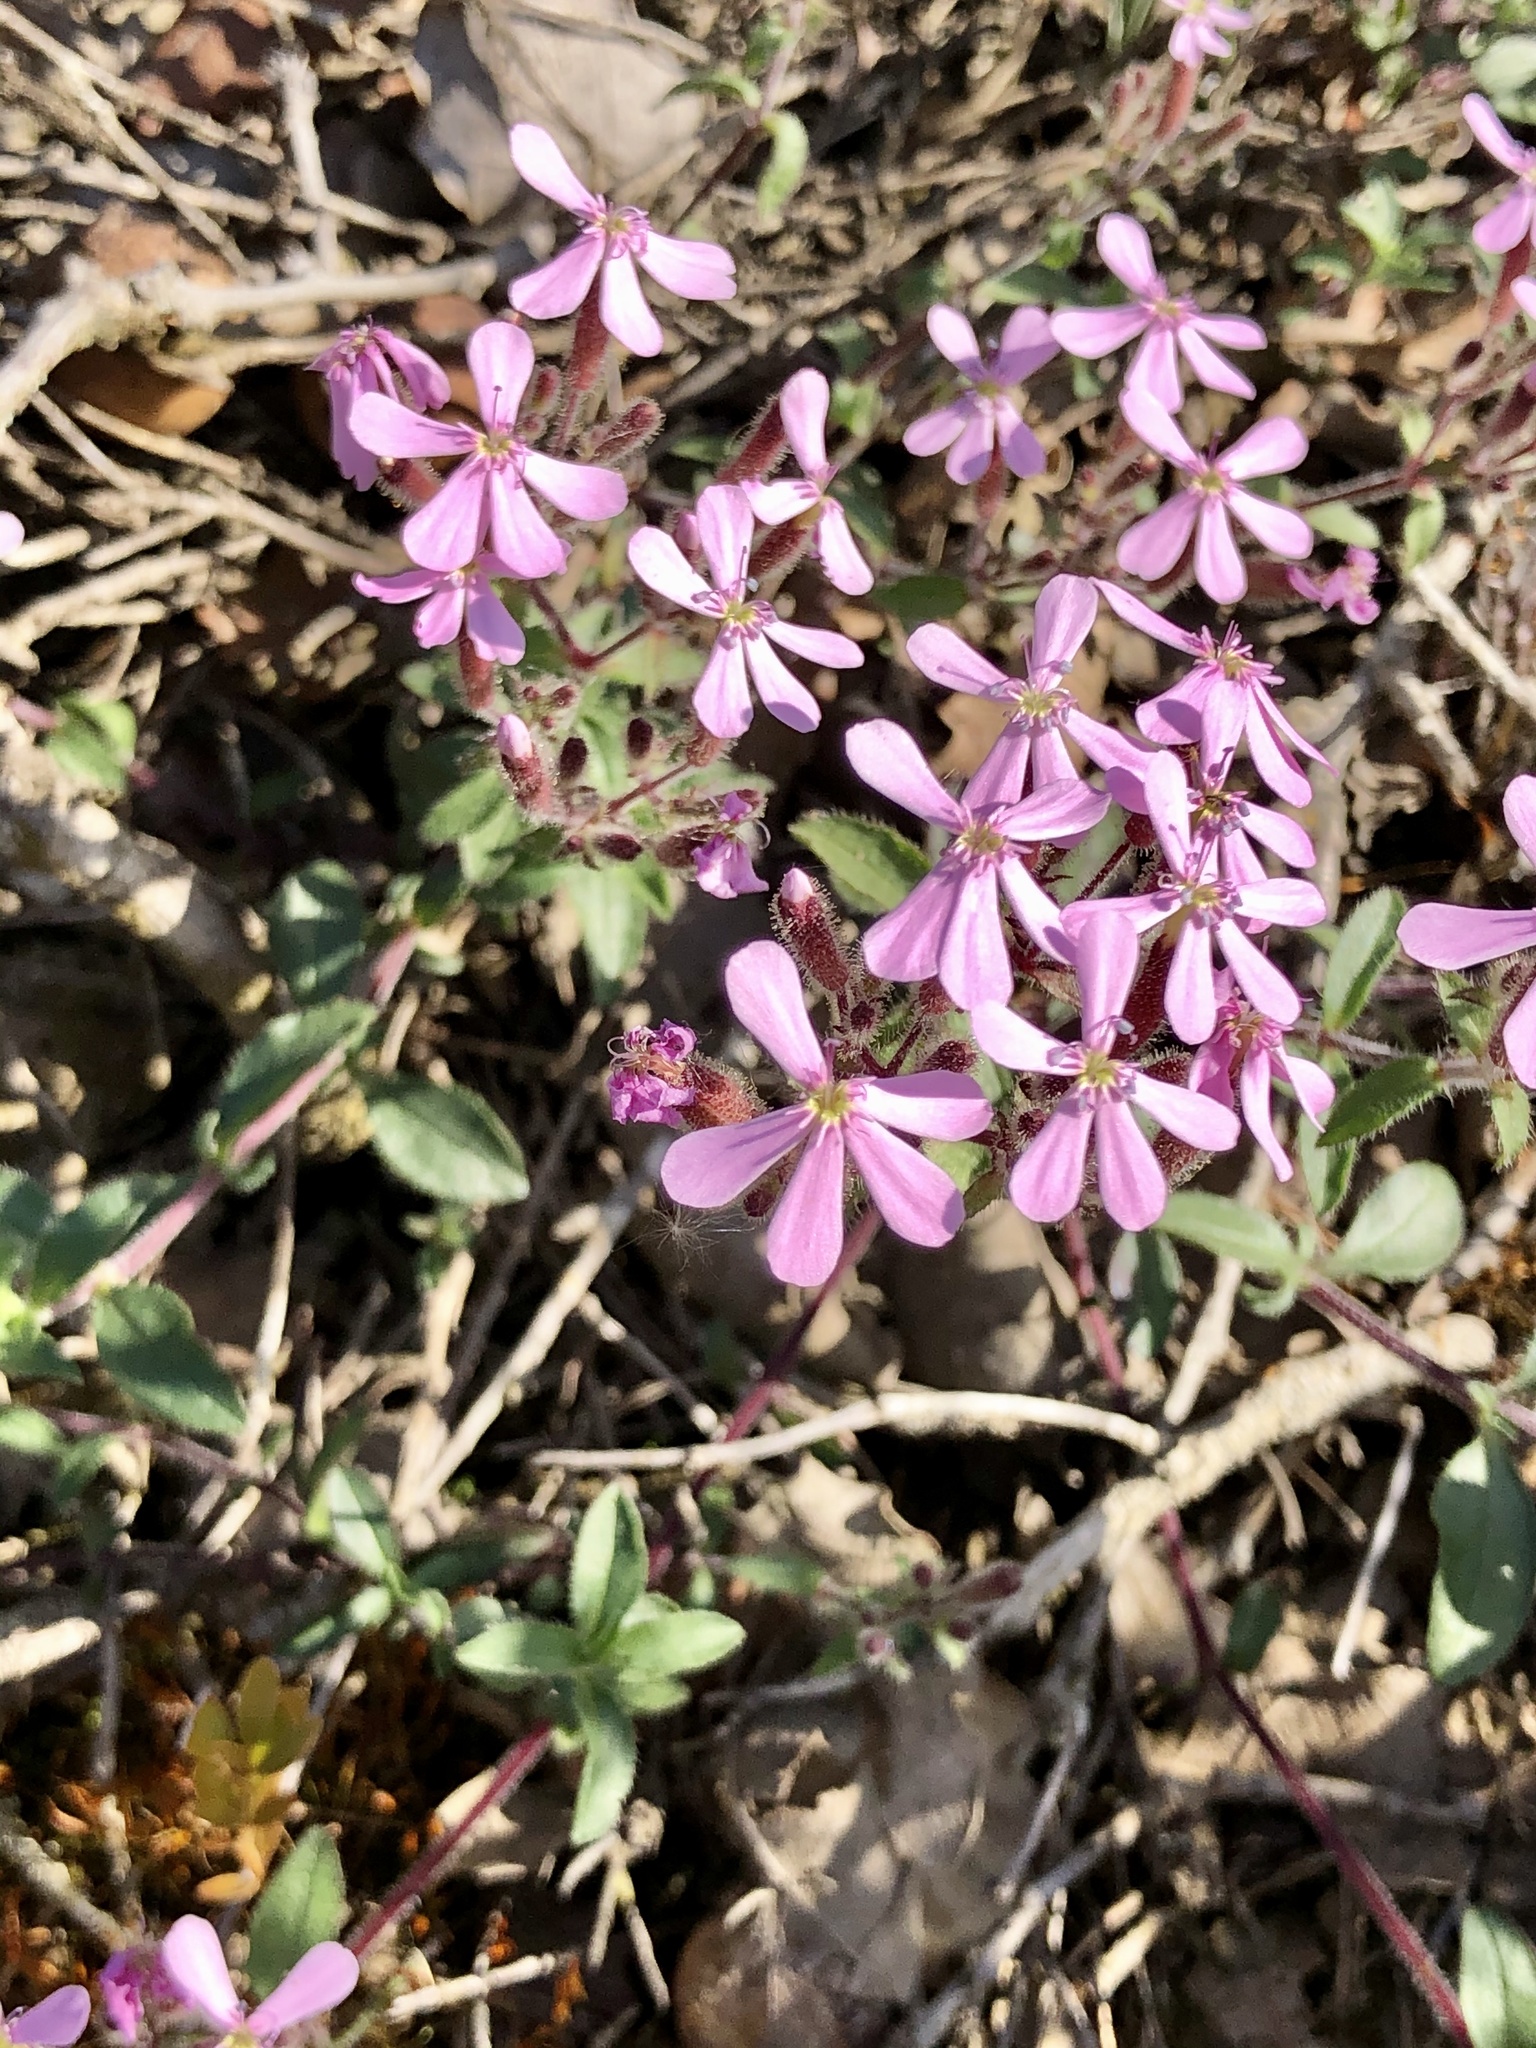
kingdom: Plantae
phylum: Tracheophyta
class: Magnoliopsida
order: Caryophyllales
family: Caryophyllaceae
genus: Saponaria
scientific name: Saponaria ocymoides
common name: Rock soapwort
